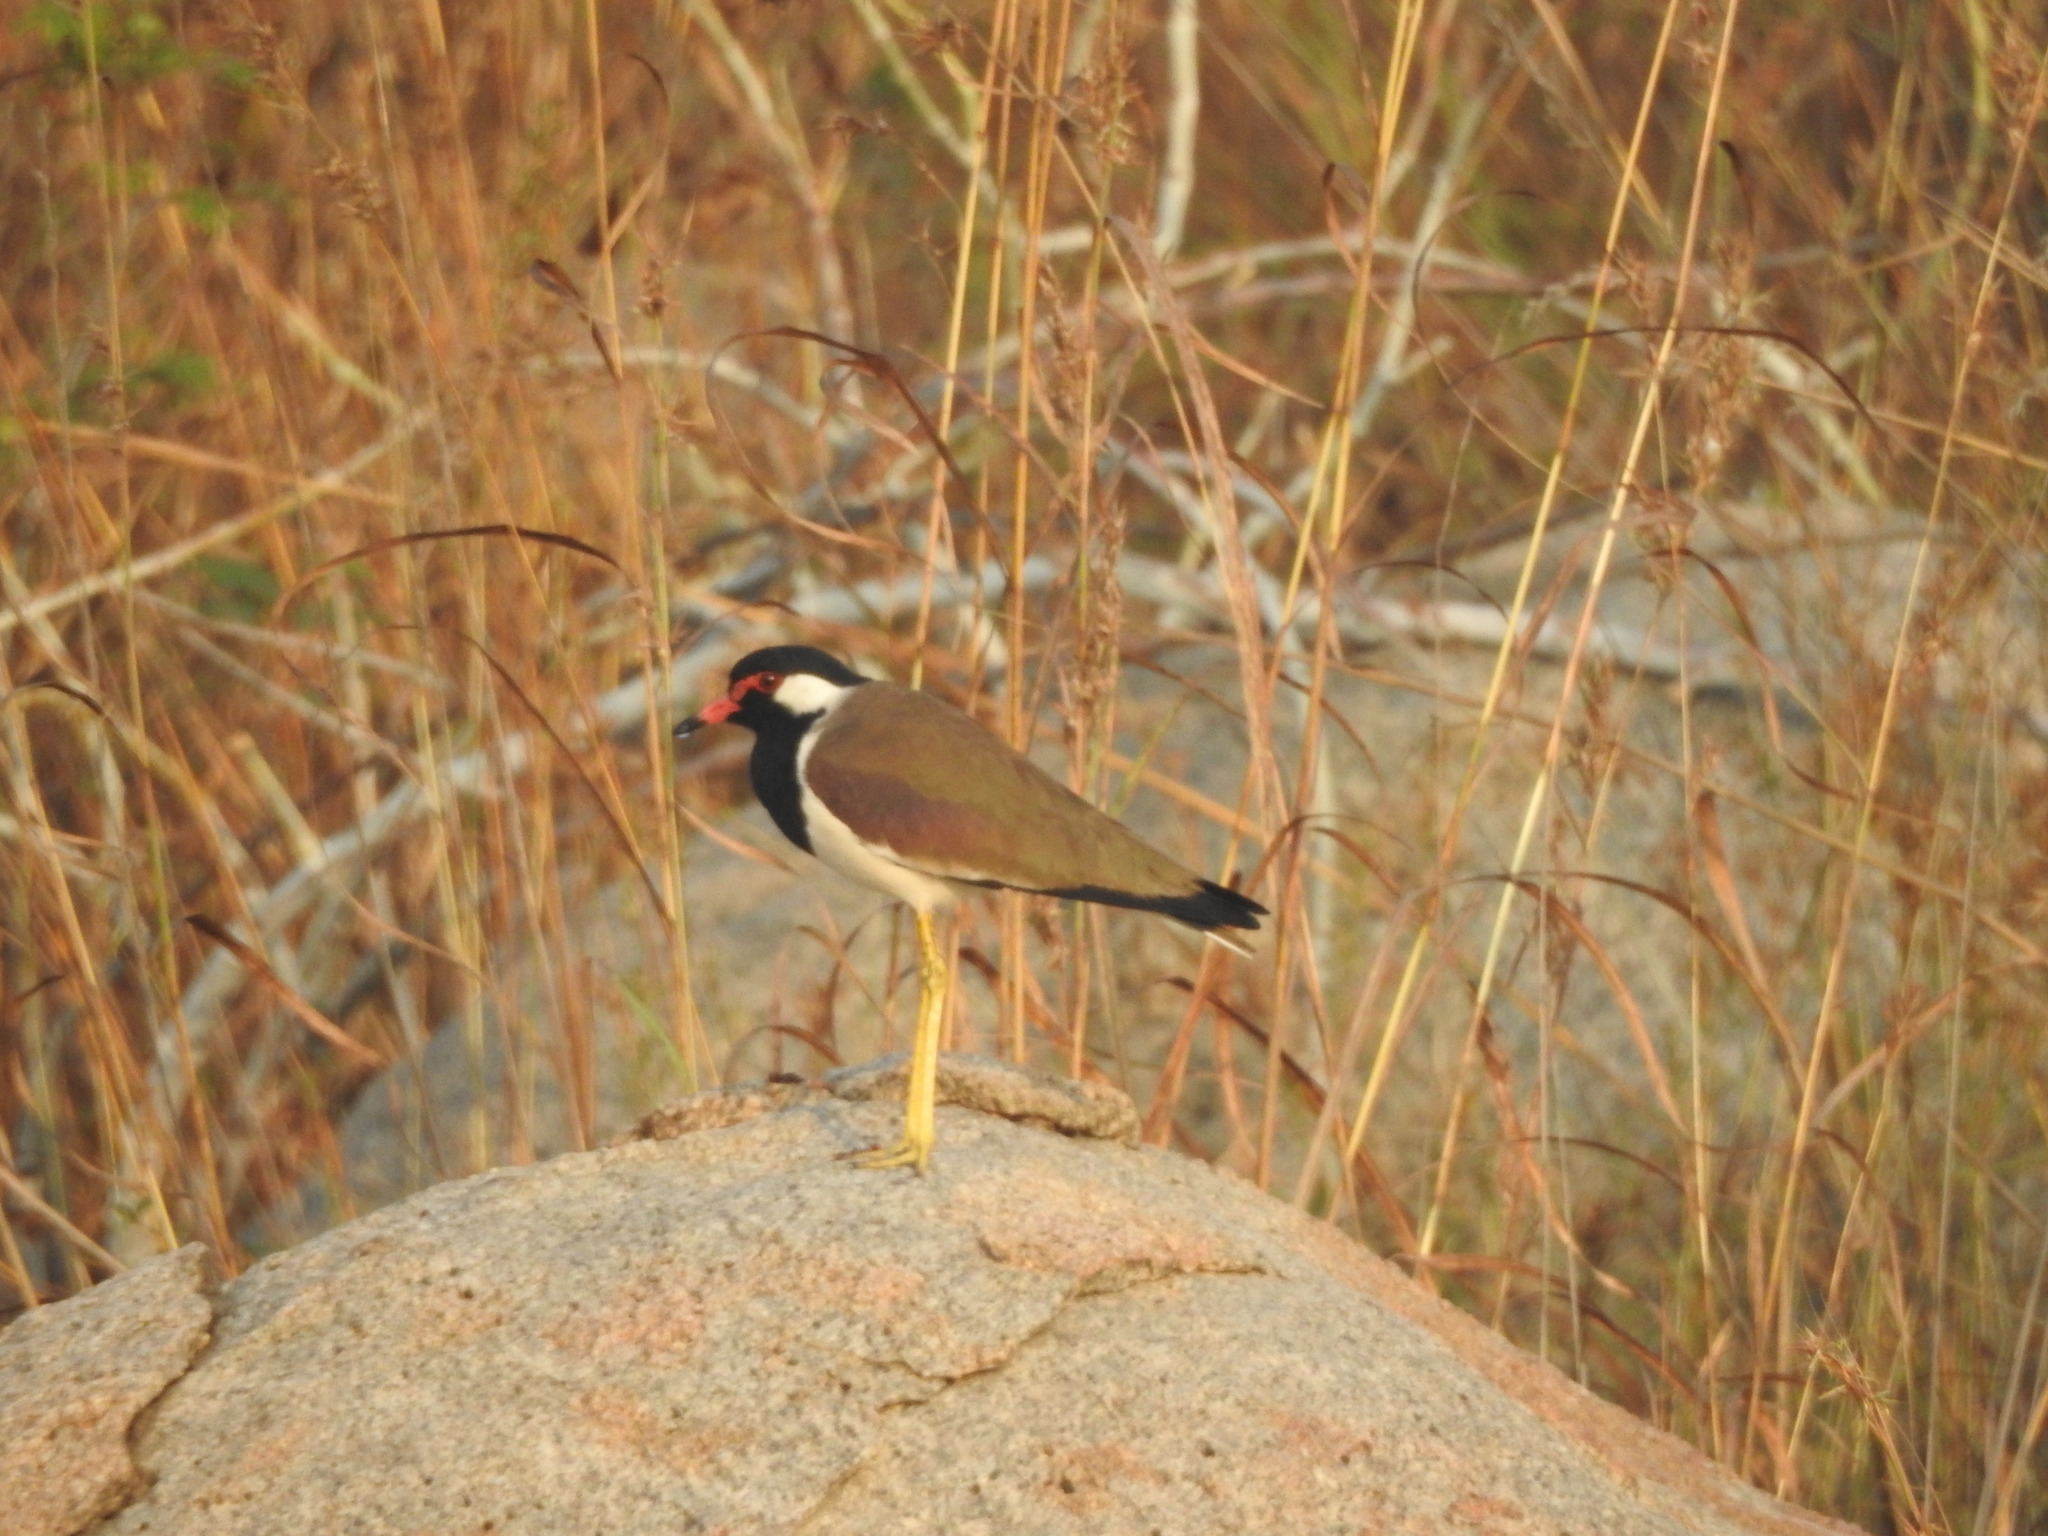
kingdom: Animalia
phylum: Chordata
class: Aves
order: Charadriiformes
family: Charadriidae
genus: Vanellus
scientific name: Vanellus indicus
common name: Red-wattled lapwing
